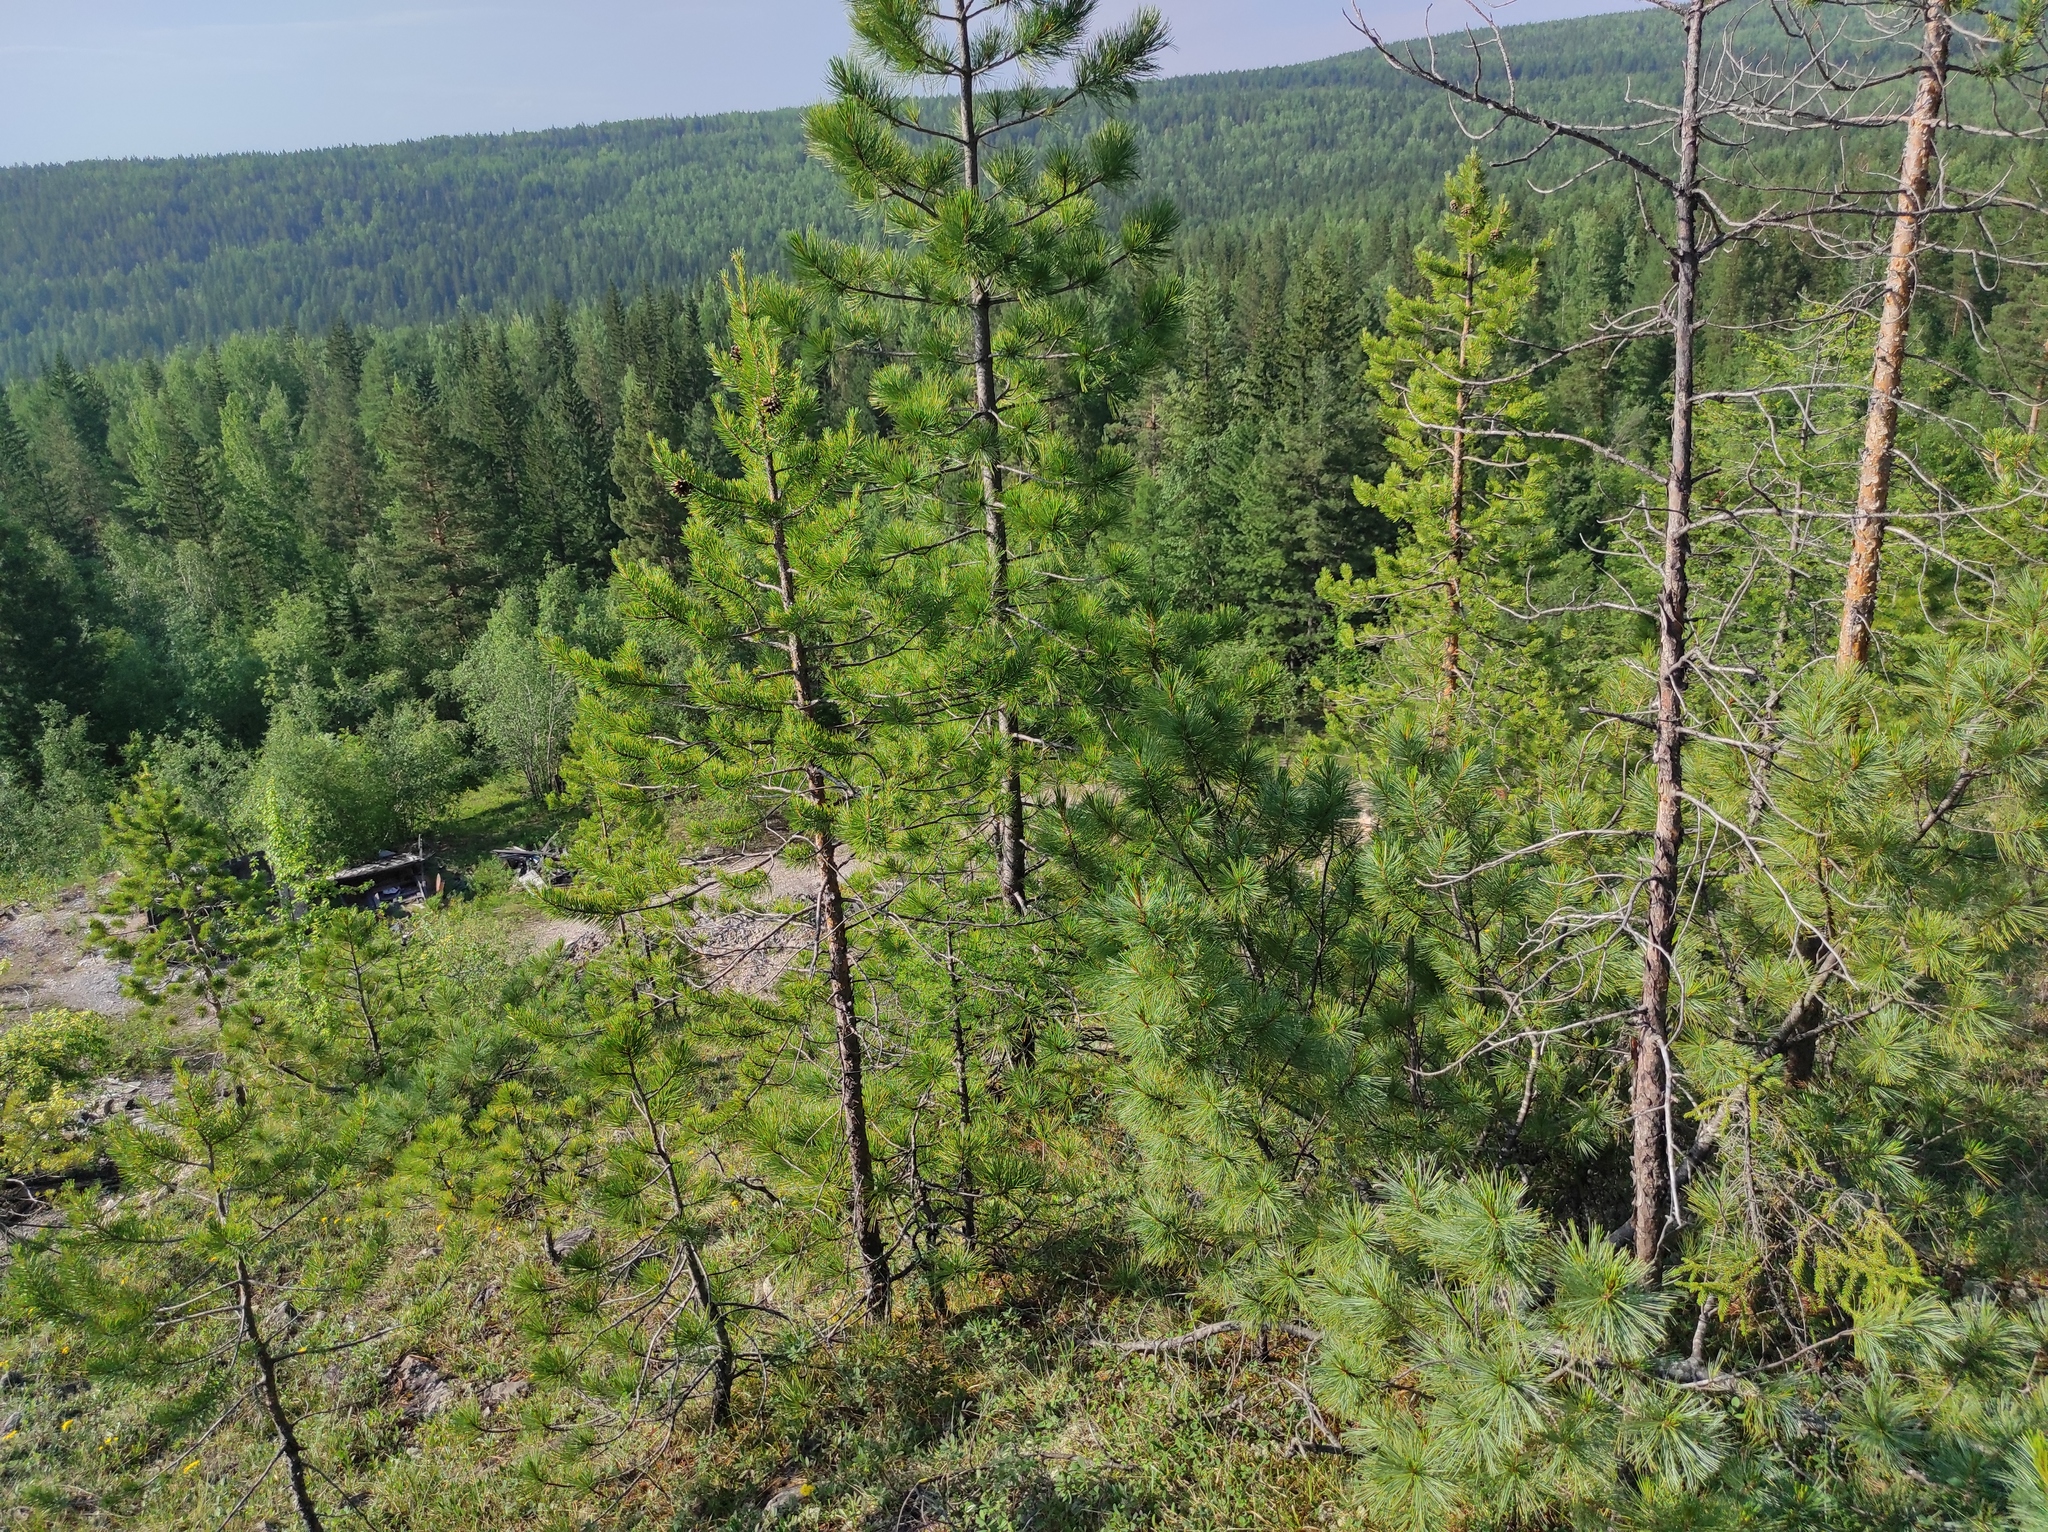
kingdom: Plantae
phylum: Tracheophyta
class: Pinopsida
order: Pinales
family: Pinaceae
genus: Pinus
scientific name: Pinus sylvestris
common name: Scots pine
